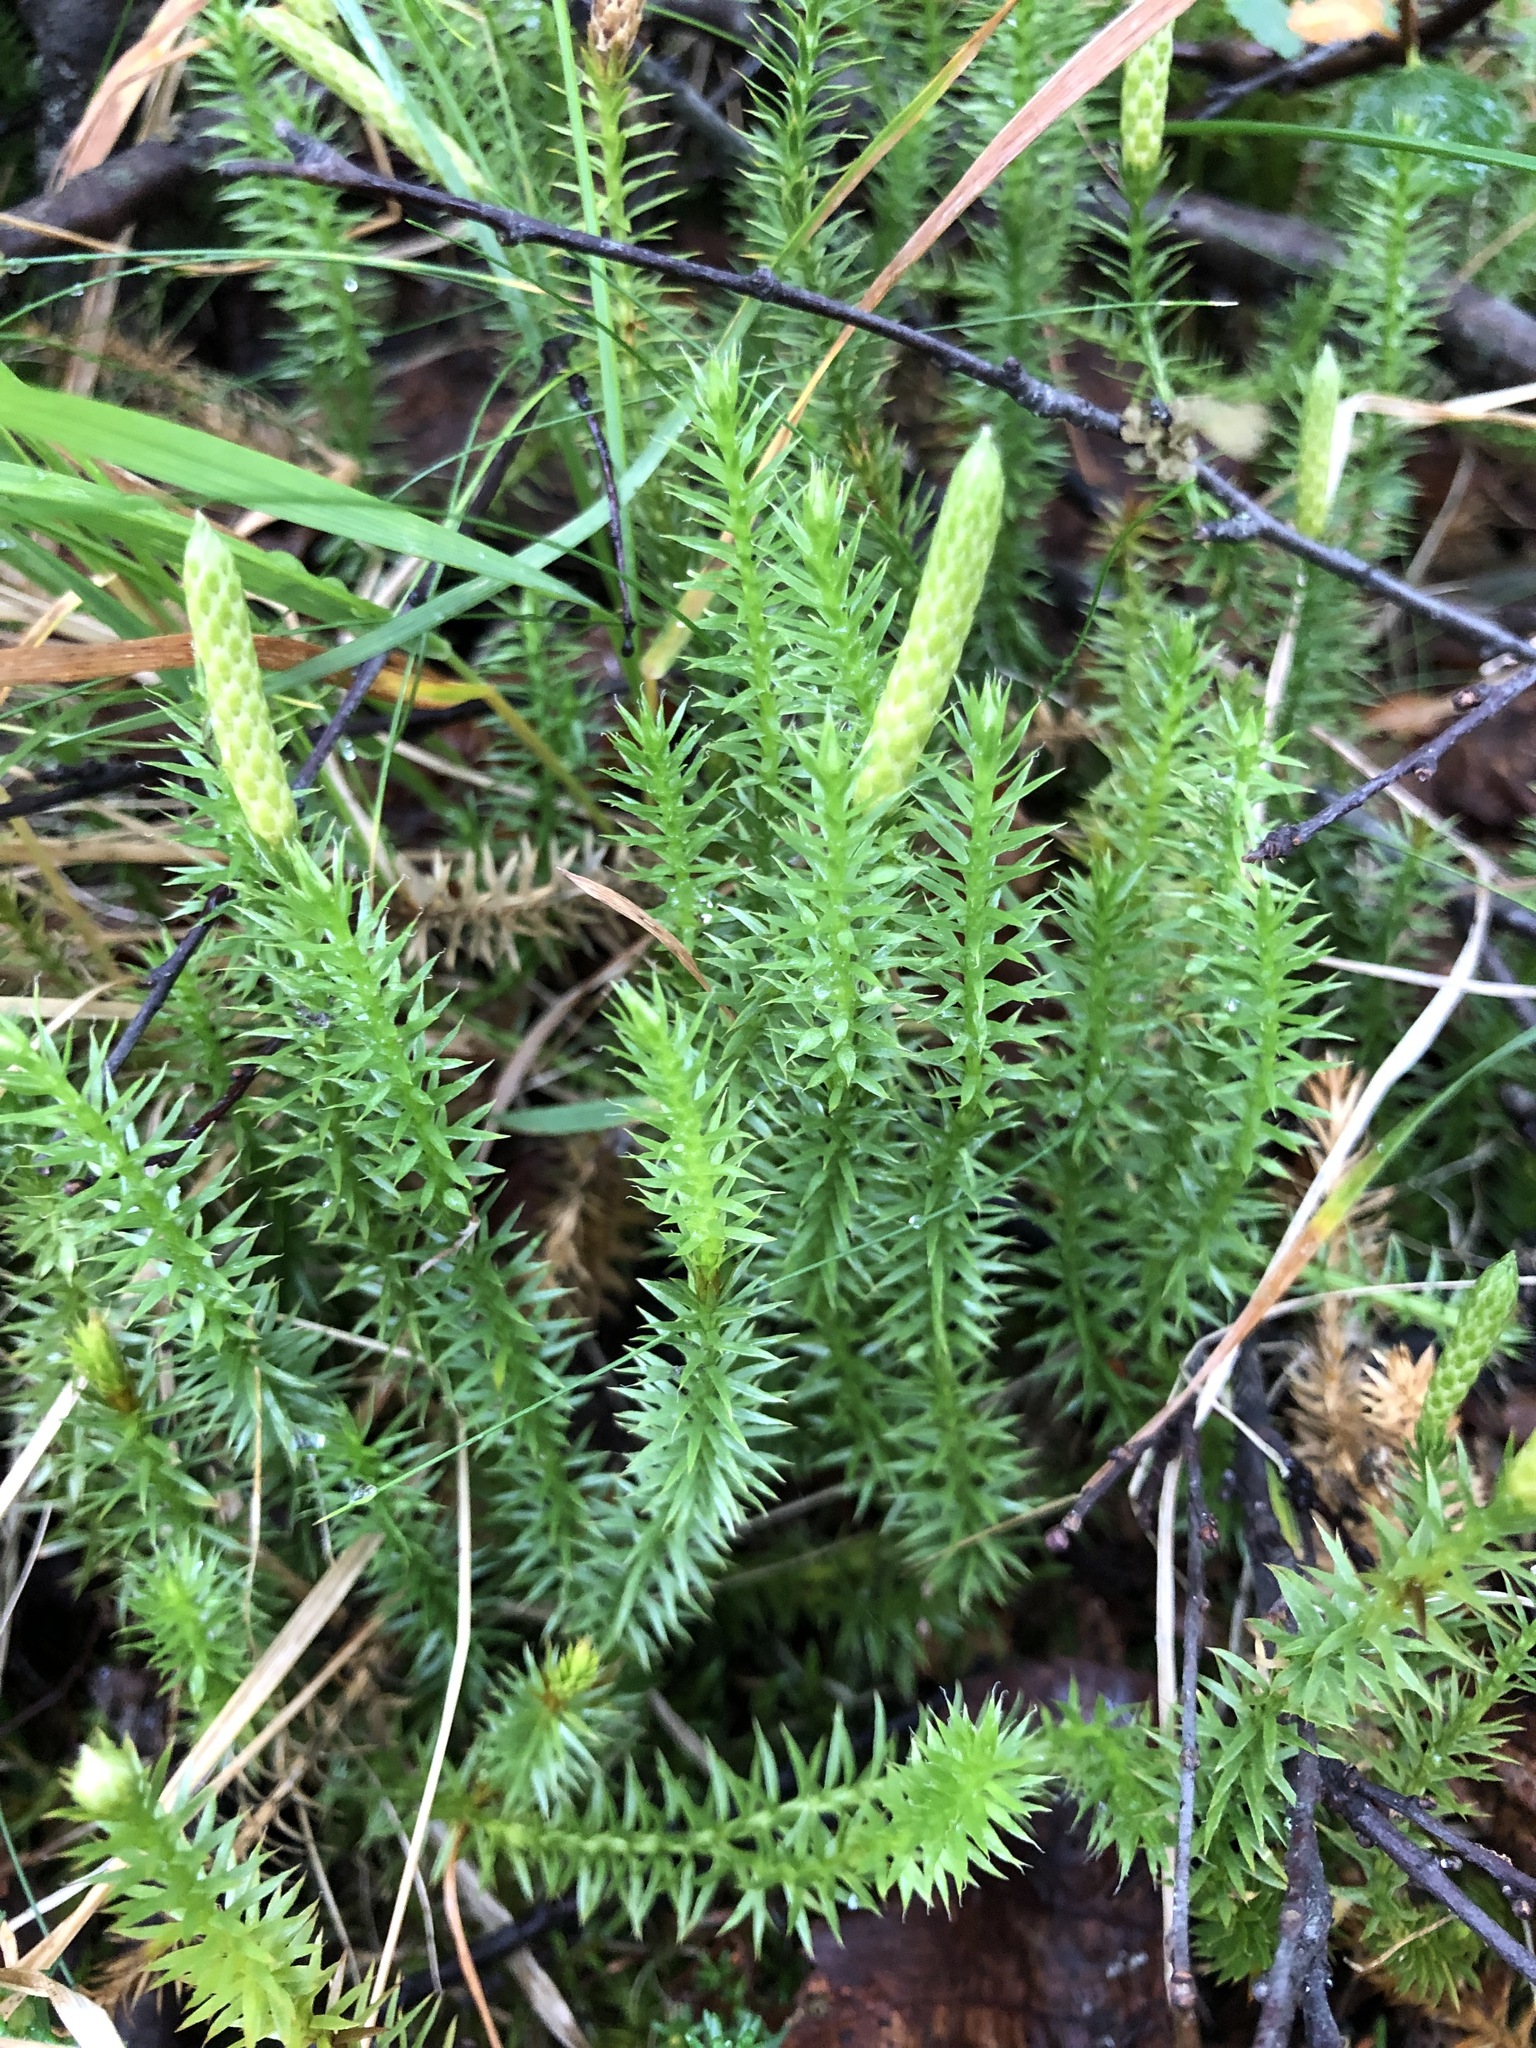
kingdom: Plantae
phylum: Tracheophyta
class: Lycopodiopsida
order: Lycopodiales
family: Lycopodiaceae
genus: Spinulum
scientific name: Spinulum annotinum
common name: Interrupted club-moss
